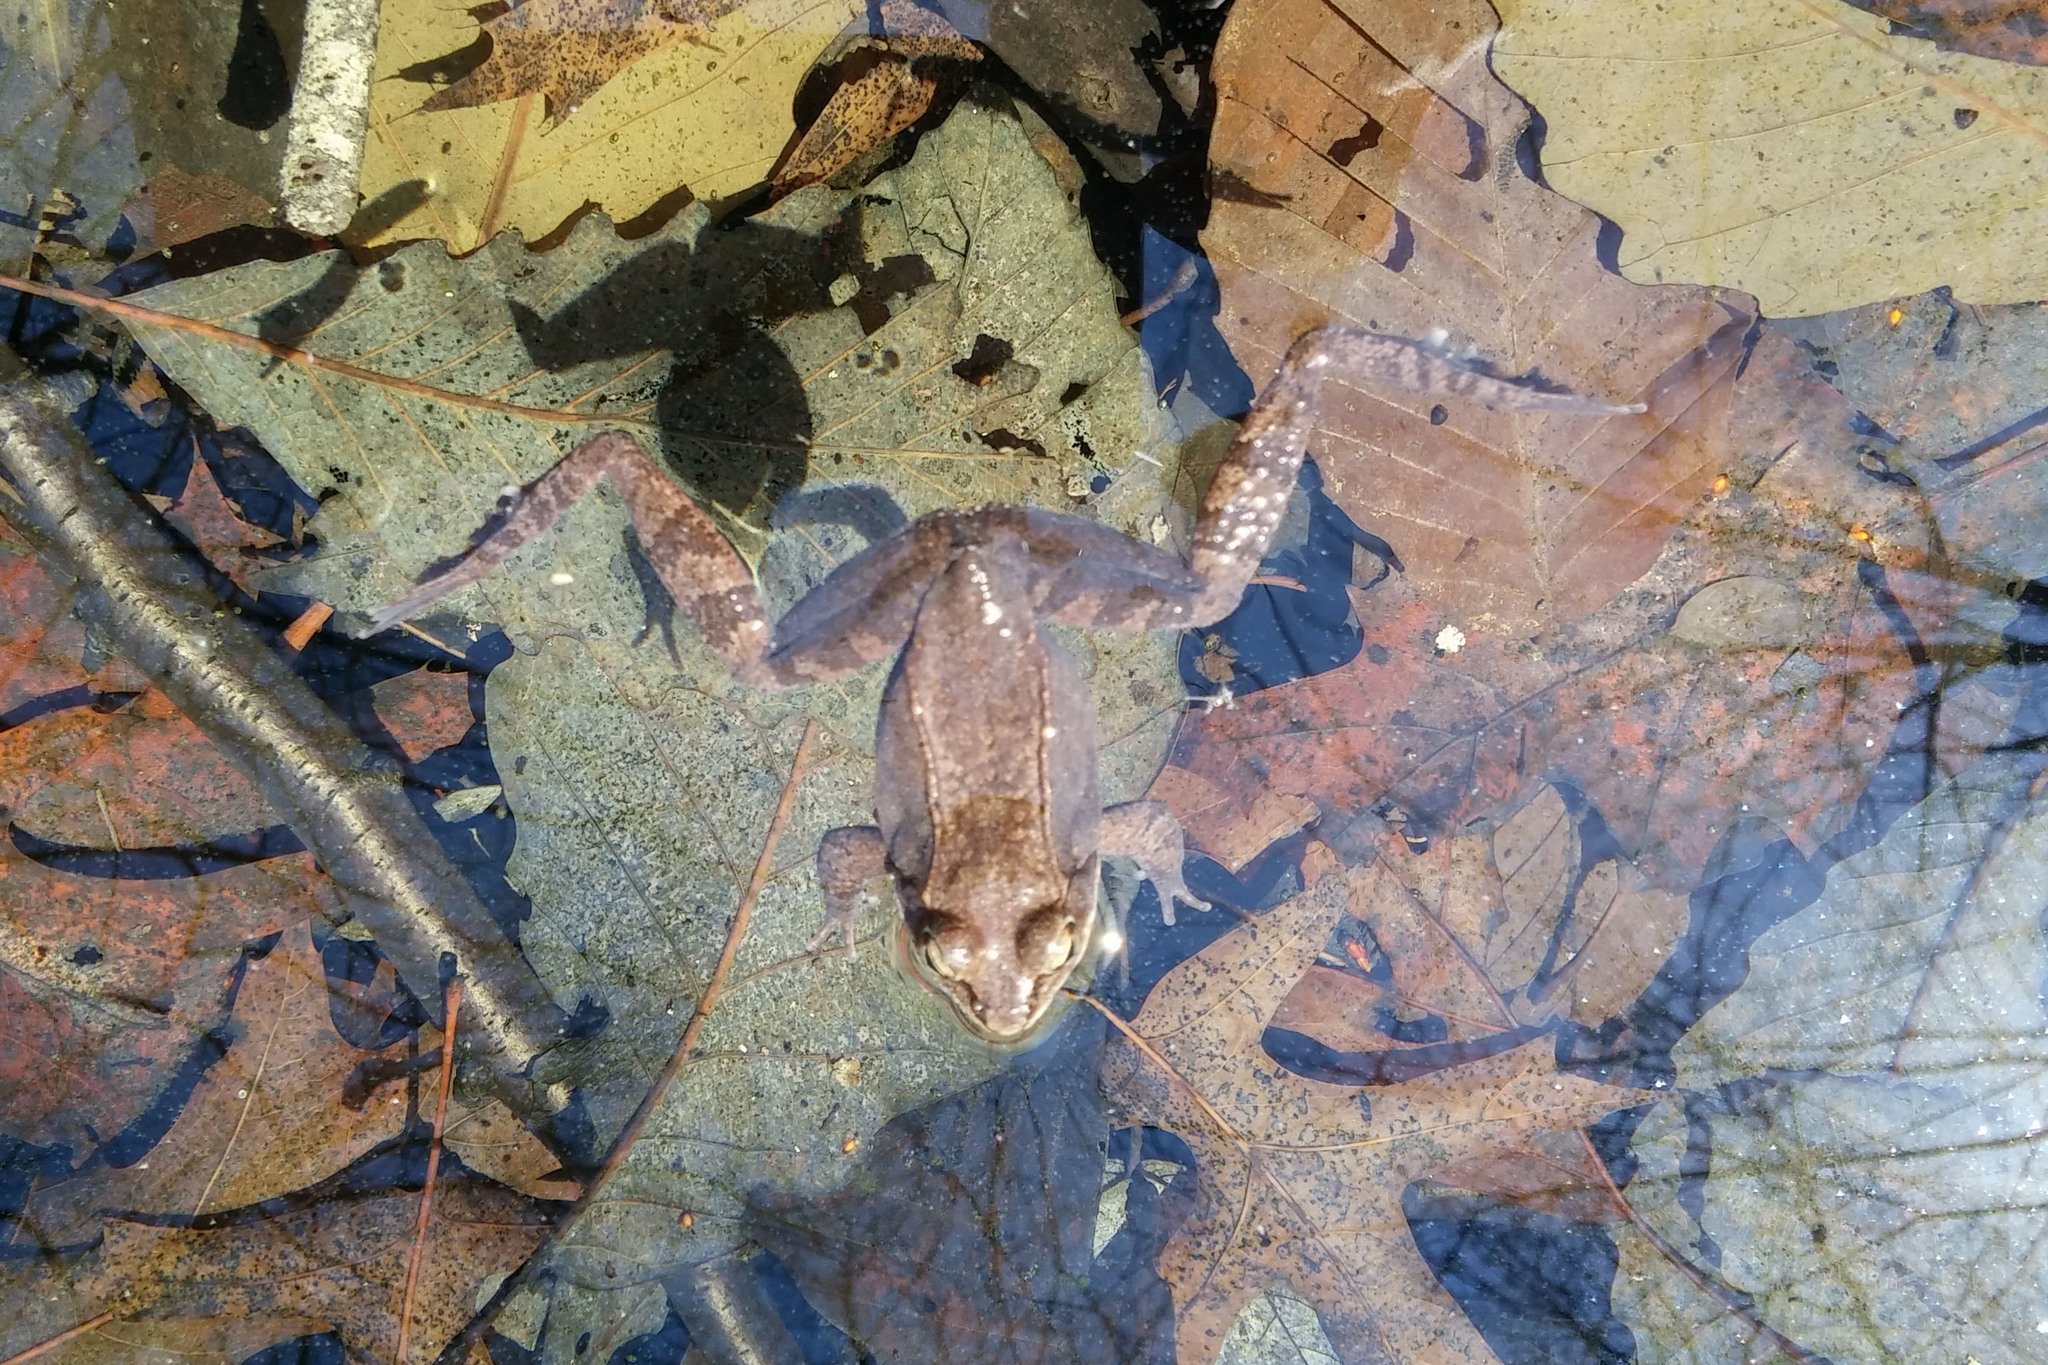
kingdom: Animalia
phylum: Chordata
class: Amphibia
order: Anura
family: Ranidae
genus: Lithobates
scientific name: Lithobates sylvaticus
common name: Wood frog
